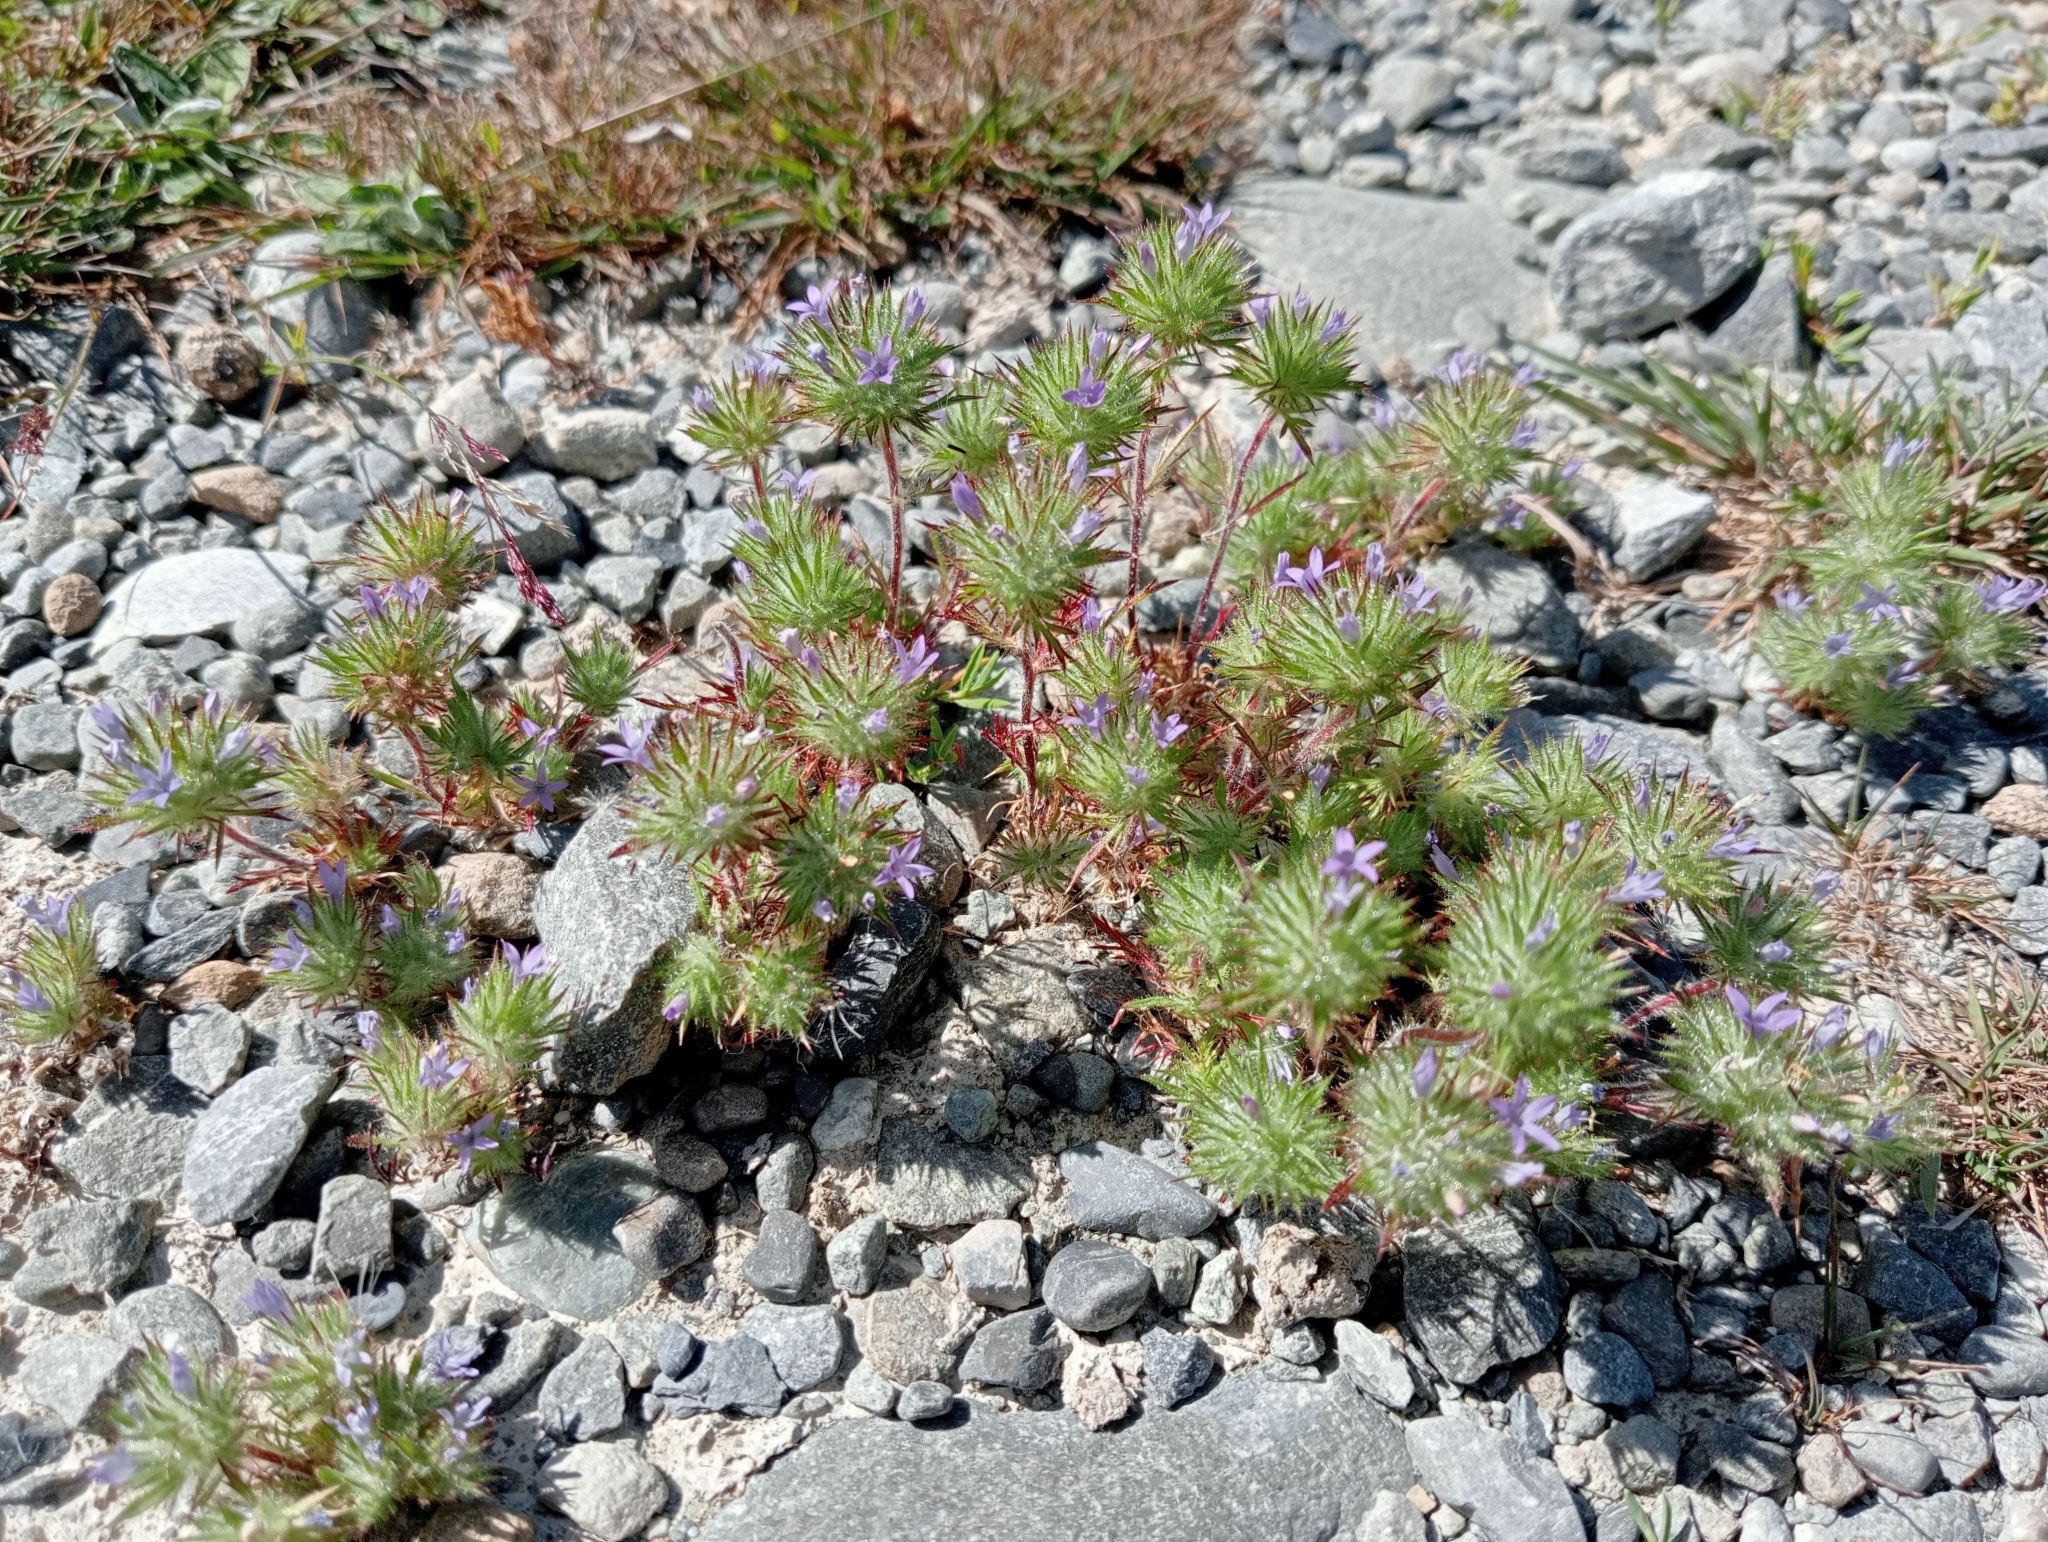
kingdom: Plantae
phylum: Tracheophyta
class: Magnoliopsida
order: Ericales
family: Polemoniaceae
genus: Navarretia
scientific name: Navarretia squarrosa
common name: Skunkweed
